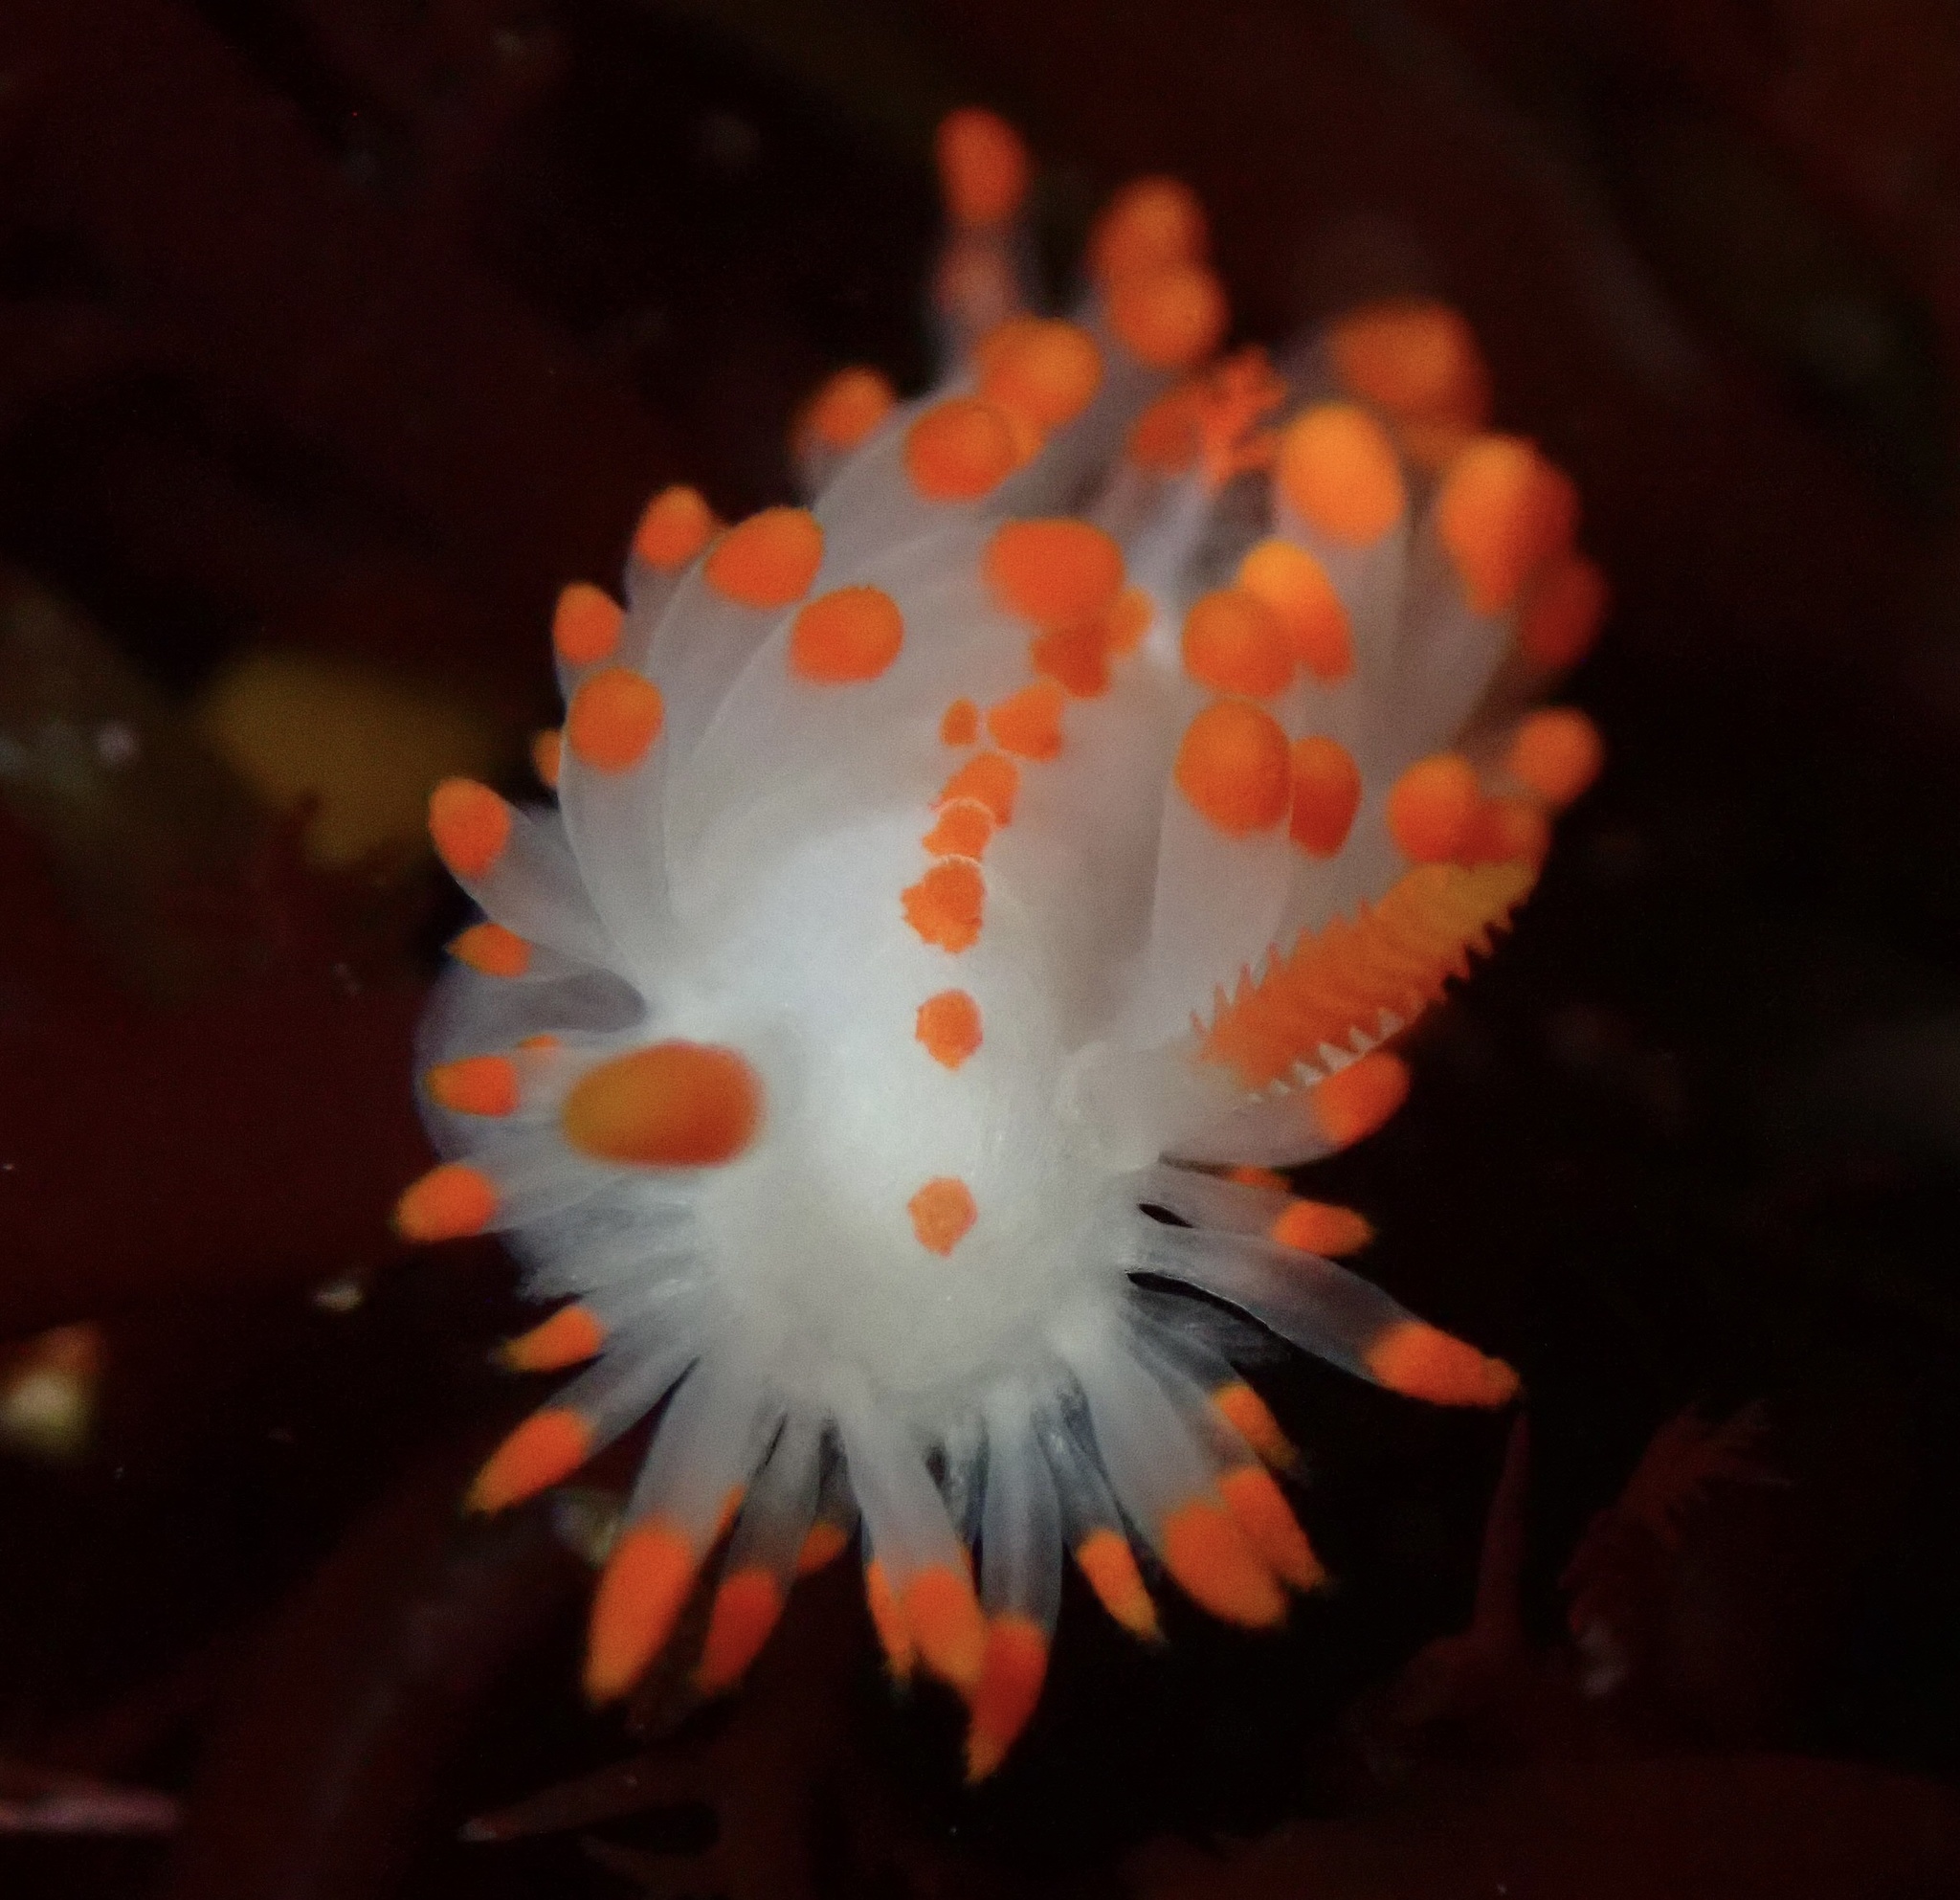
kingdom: Animalia
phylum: Mollusca
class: Gastropoda
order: Nudibranchia
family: Polyceridae
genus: Limacia
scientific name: Limacia mcdonaldi
